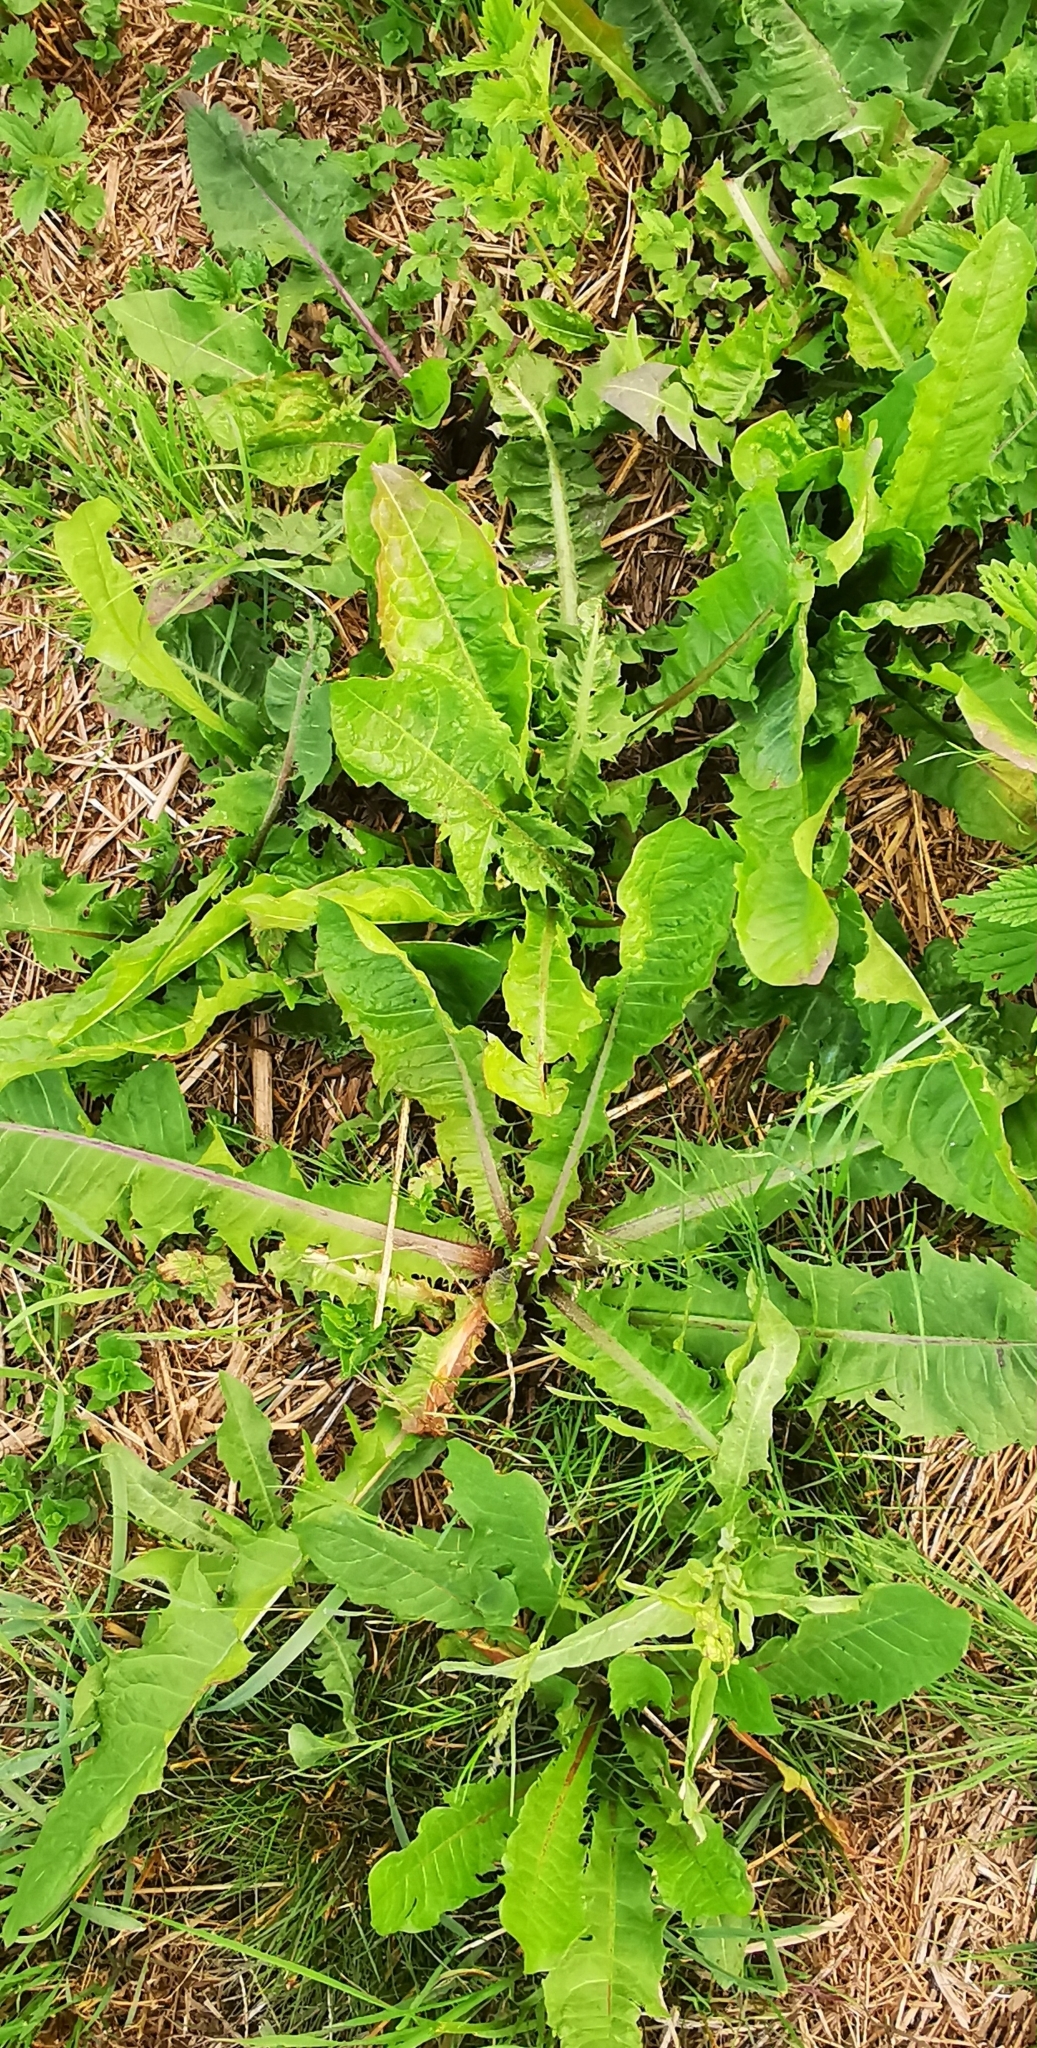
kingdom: Plantae
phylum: Tracheophyta
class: Magnoliopsida
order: Asterales
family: Asteraceae
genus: Taraxacum
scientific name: Taraxacum officinale
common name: Common dandelion
